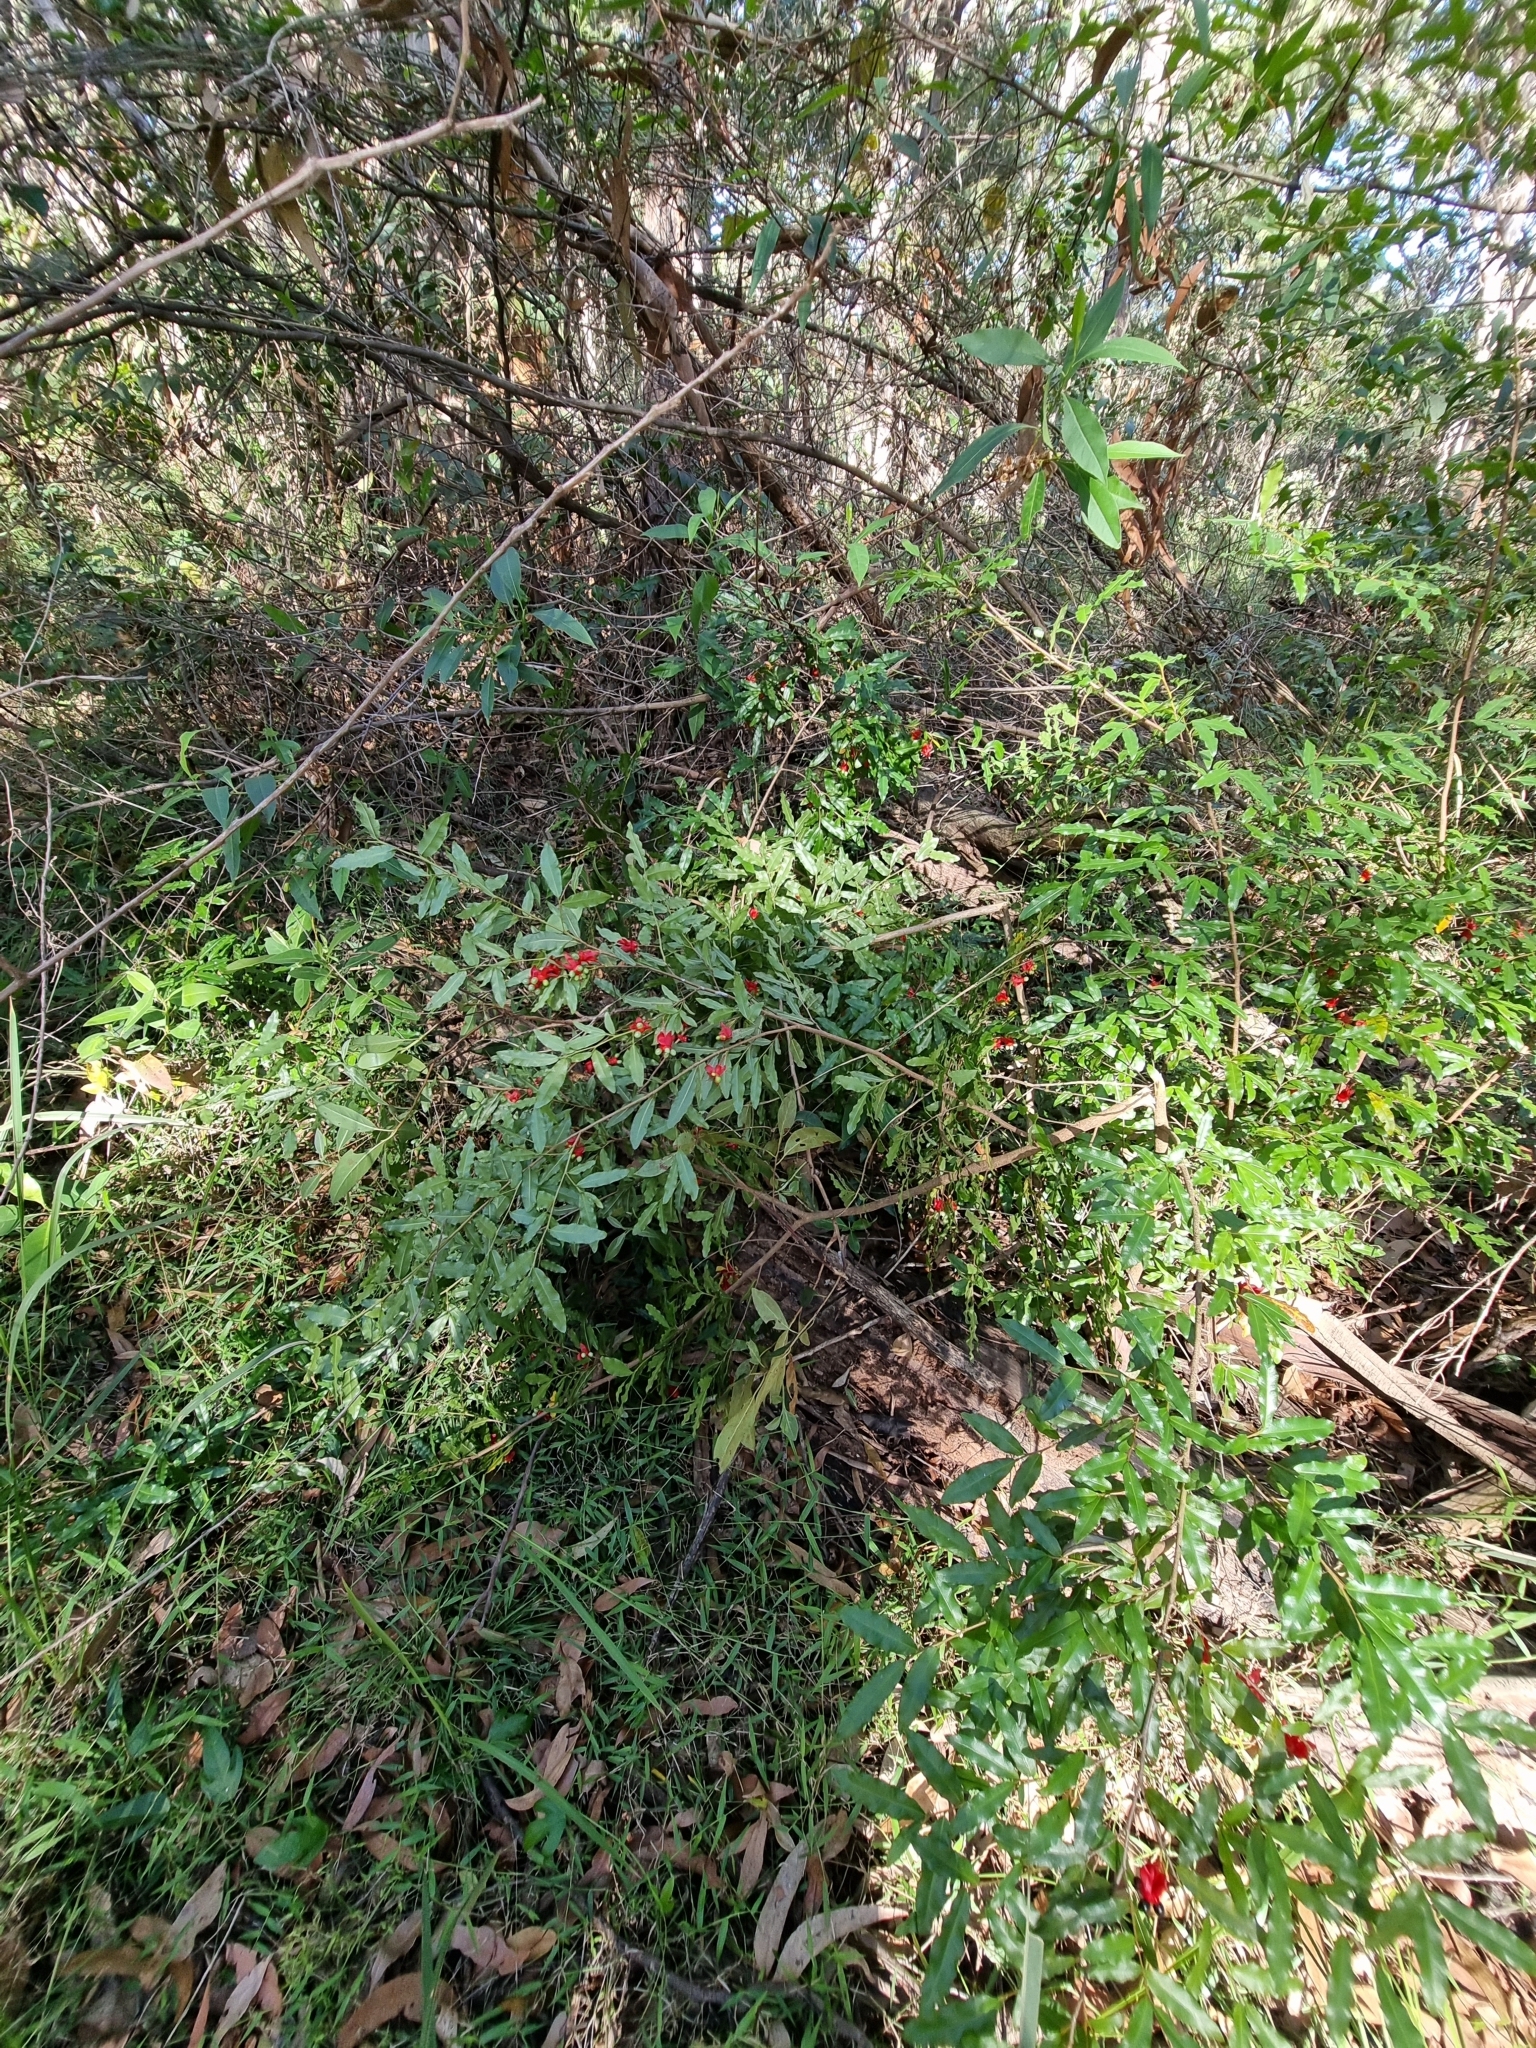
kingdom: Plantae
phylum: Tracheophyta
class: Magnoliopsida
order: Malpighiales
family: Ochnaceae
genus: Ochna
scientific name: Ochna serrulata
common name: Mickey mouse plant
